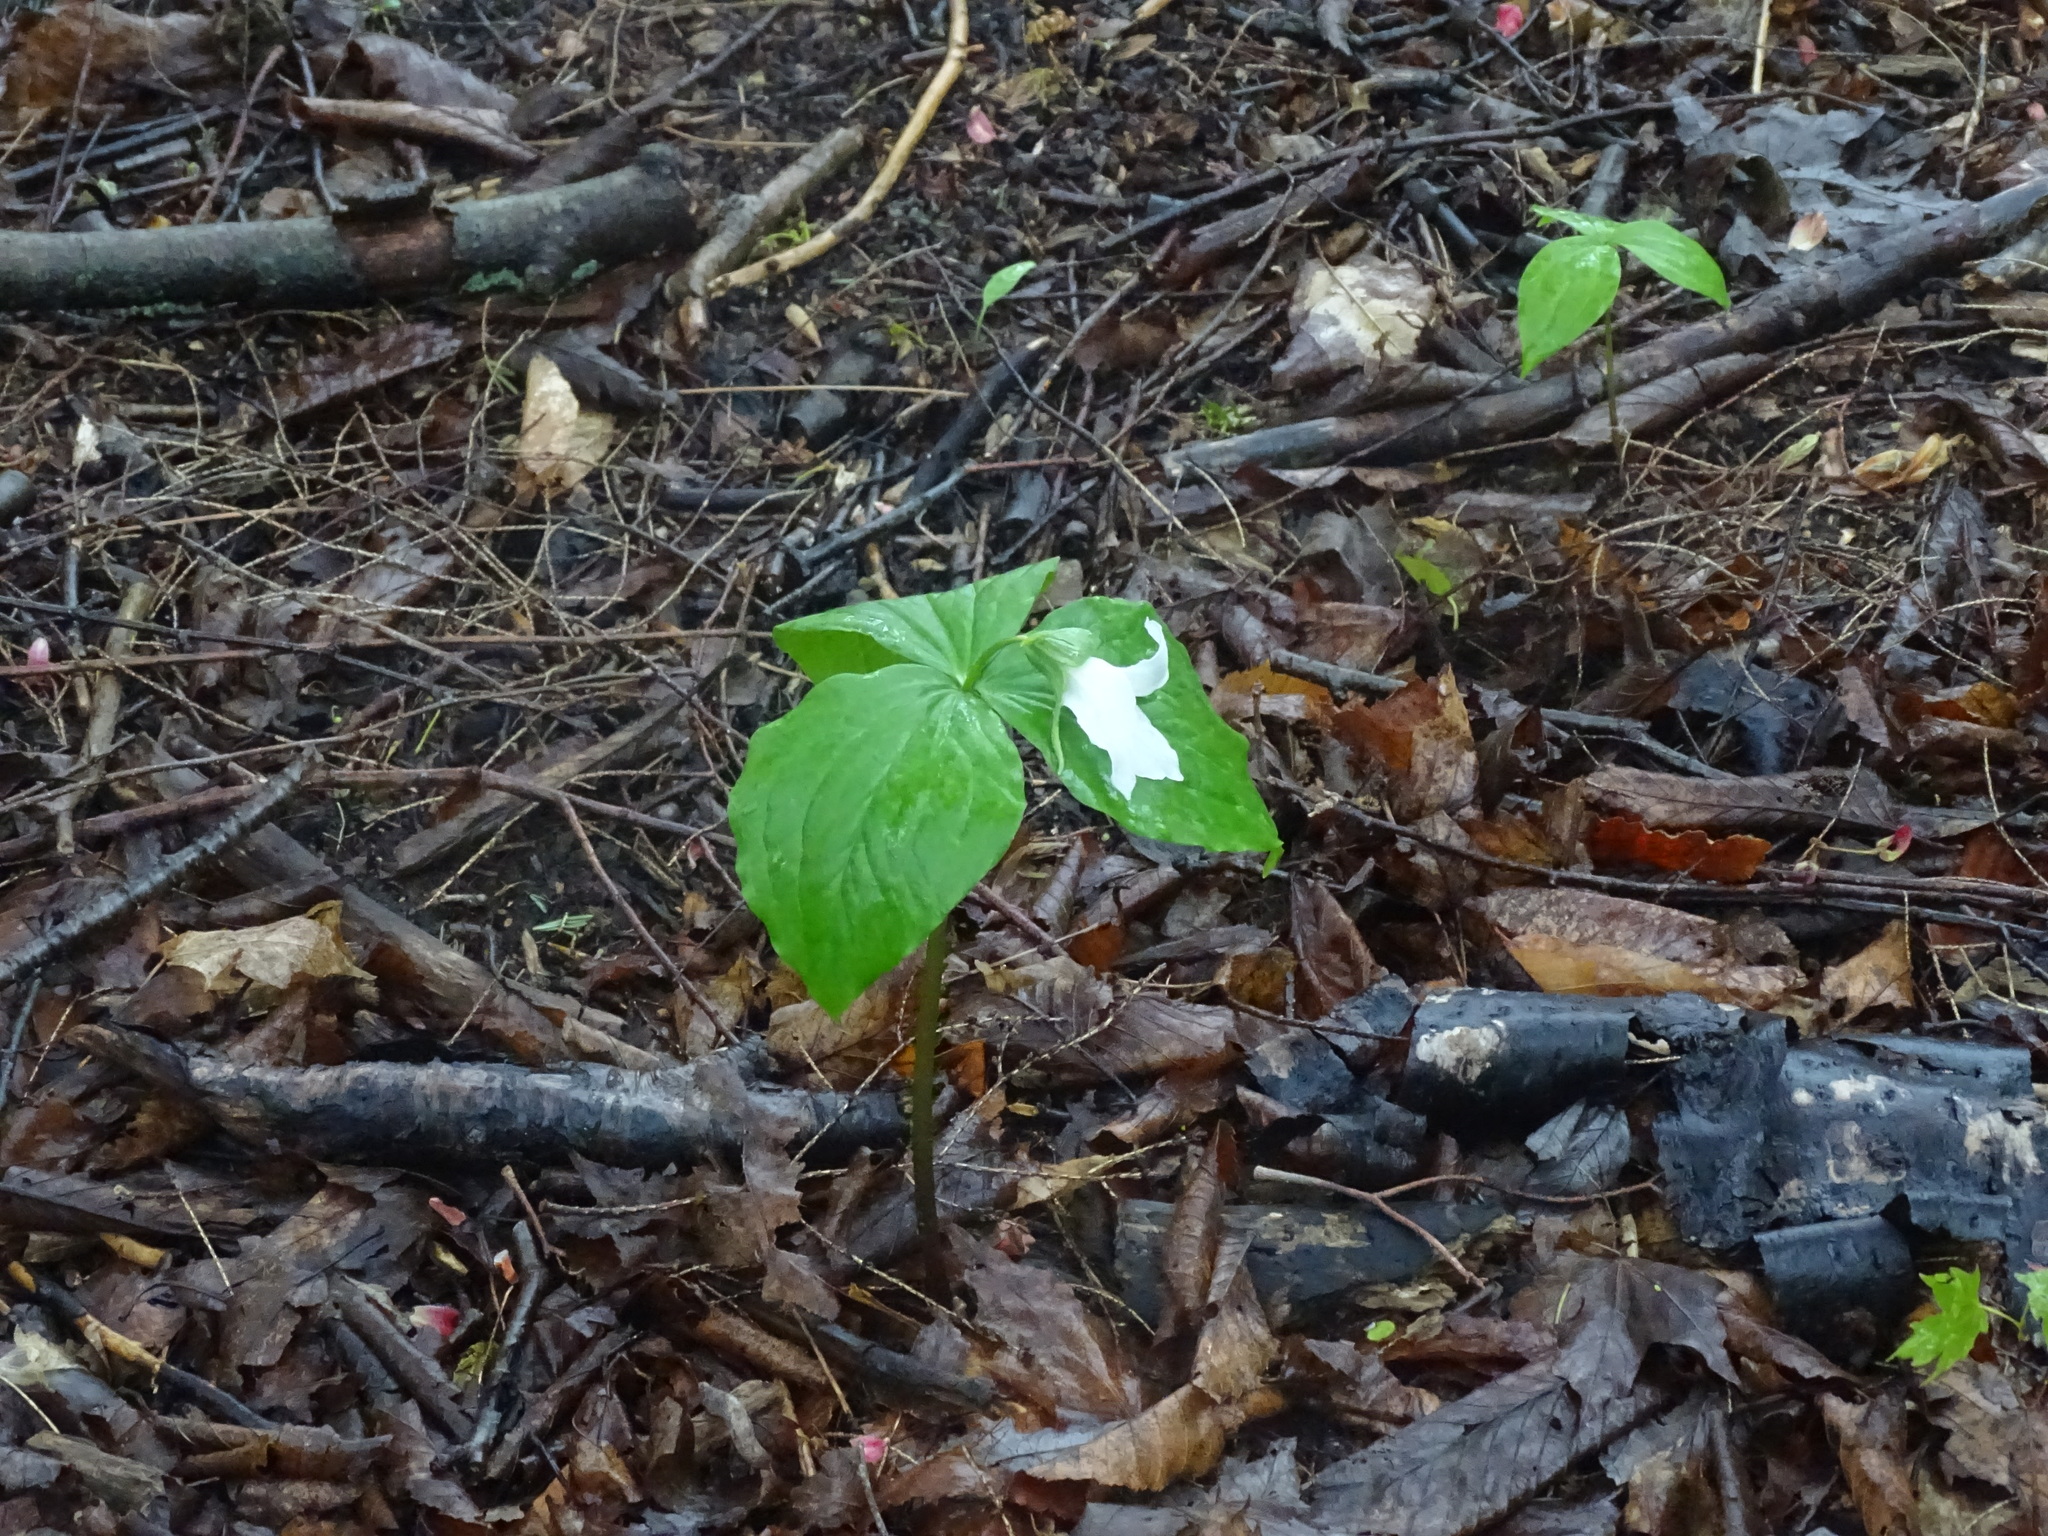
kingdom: Plantae
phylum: Tracheophyta
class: Liliopsida
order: Liliales
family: Melanthiaceae
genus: Trillium
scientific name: Trillium grandiflorum
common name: Great white trillium
